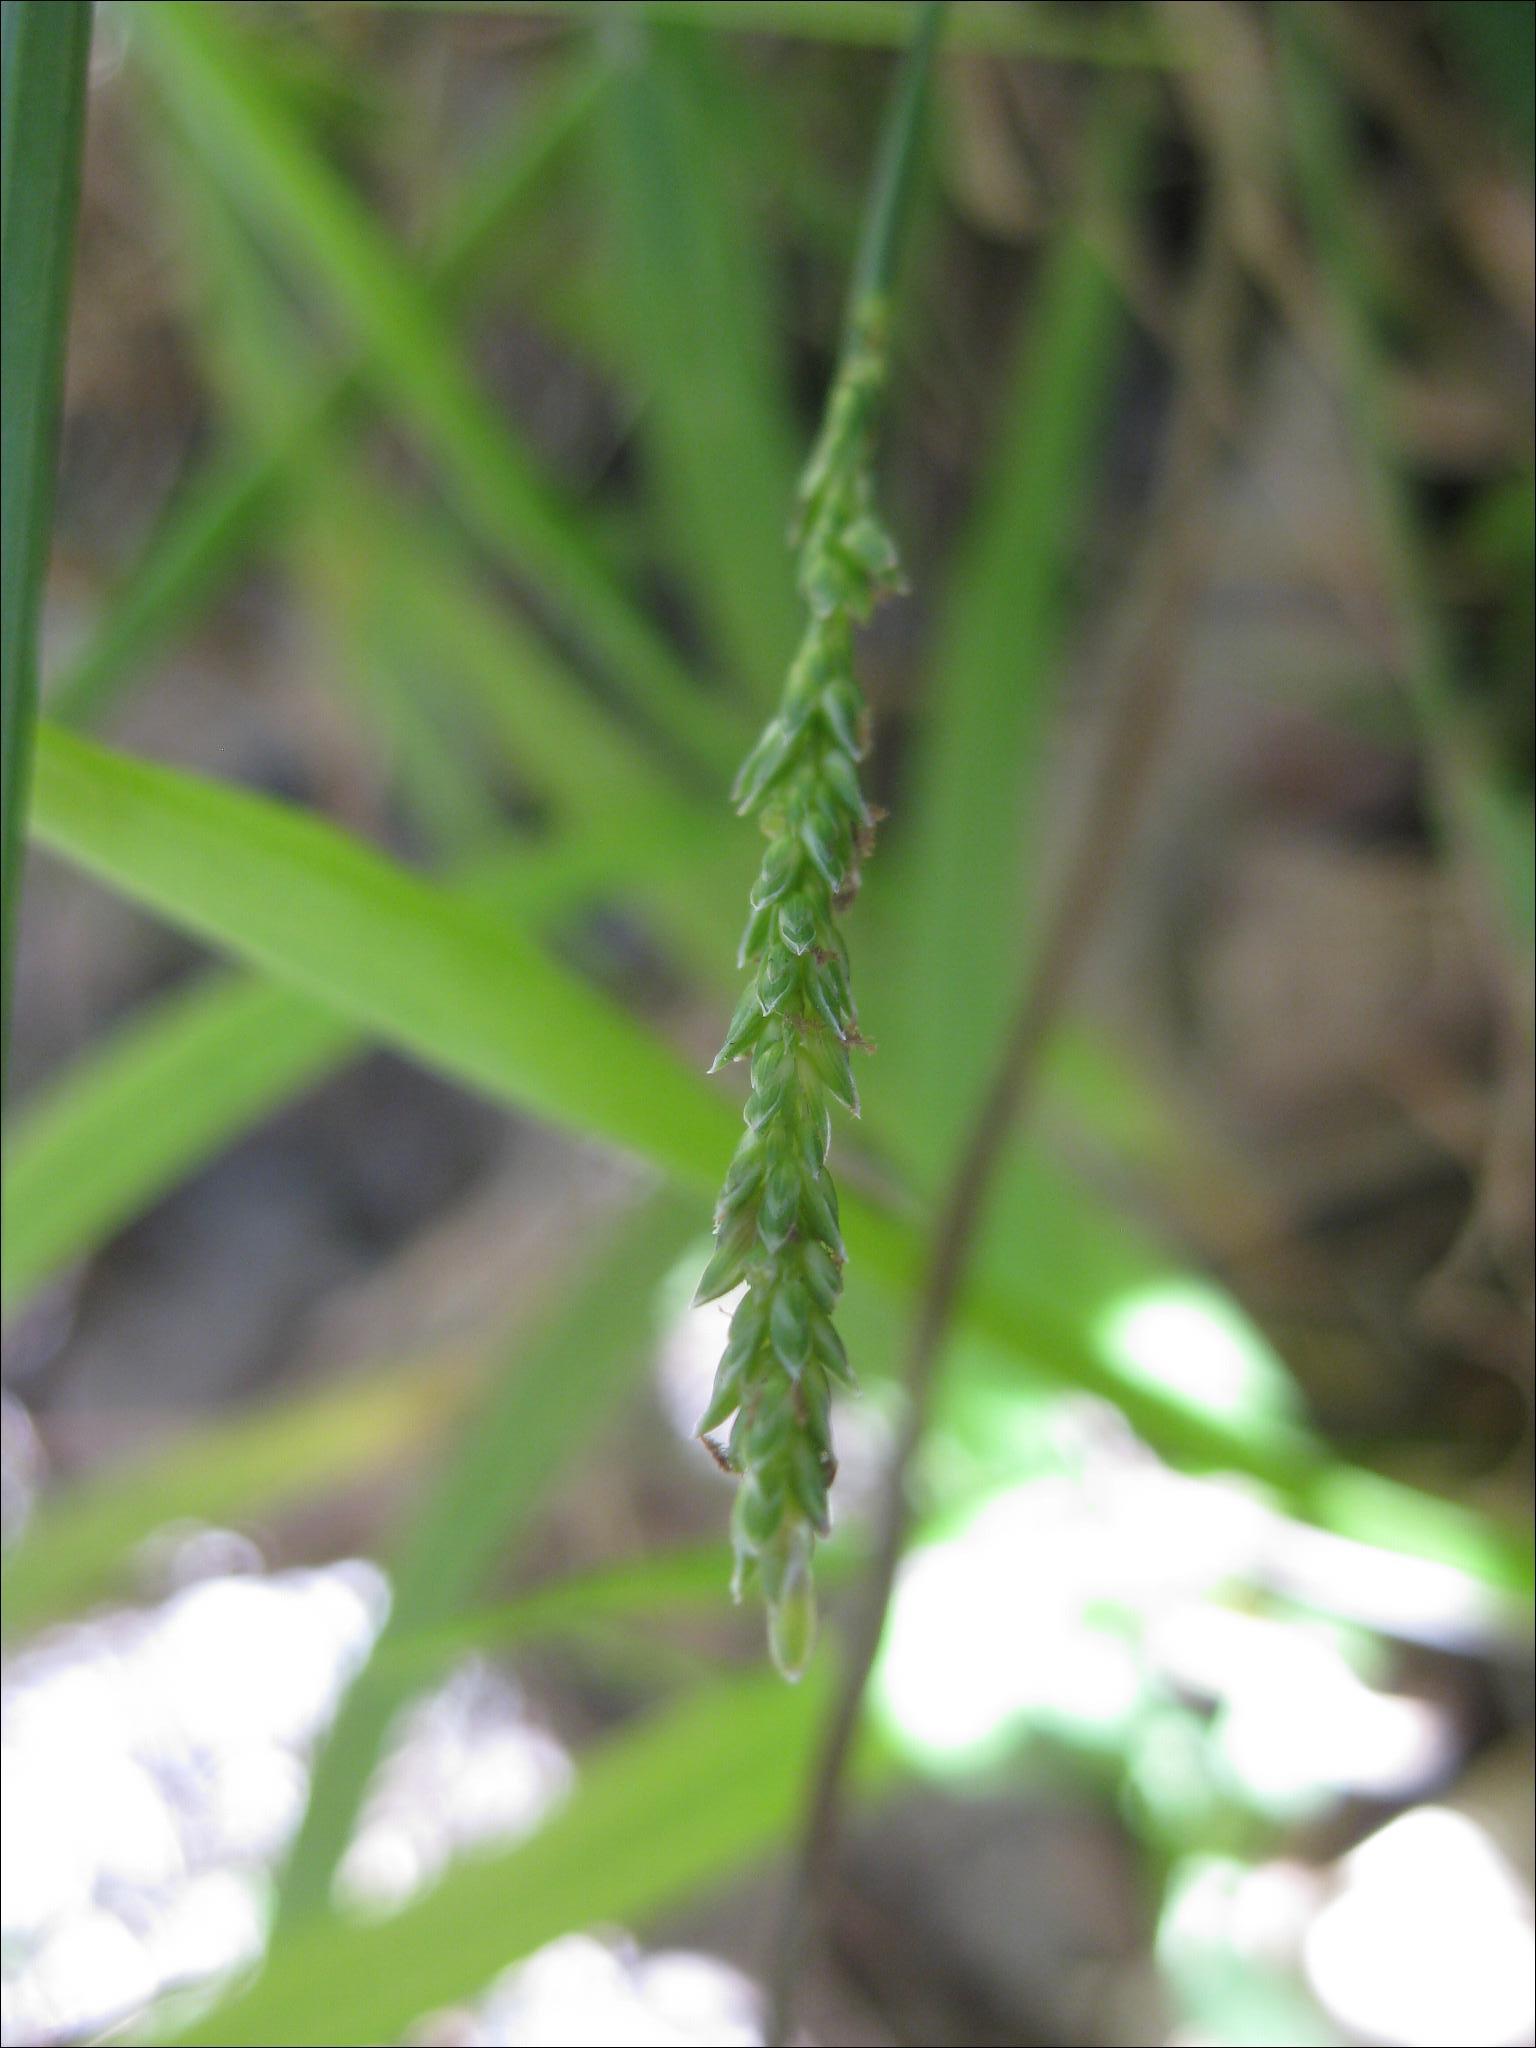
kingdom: Plantae
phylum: Tracheophyta
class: Liliopsida
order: Poales
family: Poaceae
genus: Sacciolepis
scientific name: Sacciolepis indica
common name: Glenwoodgrass
